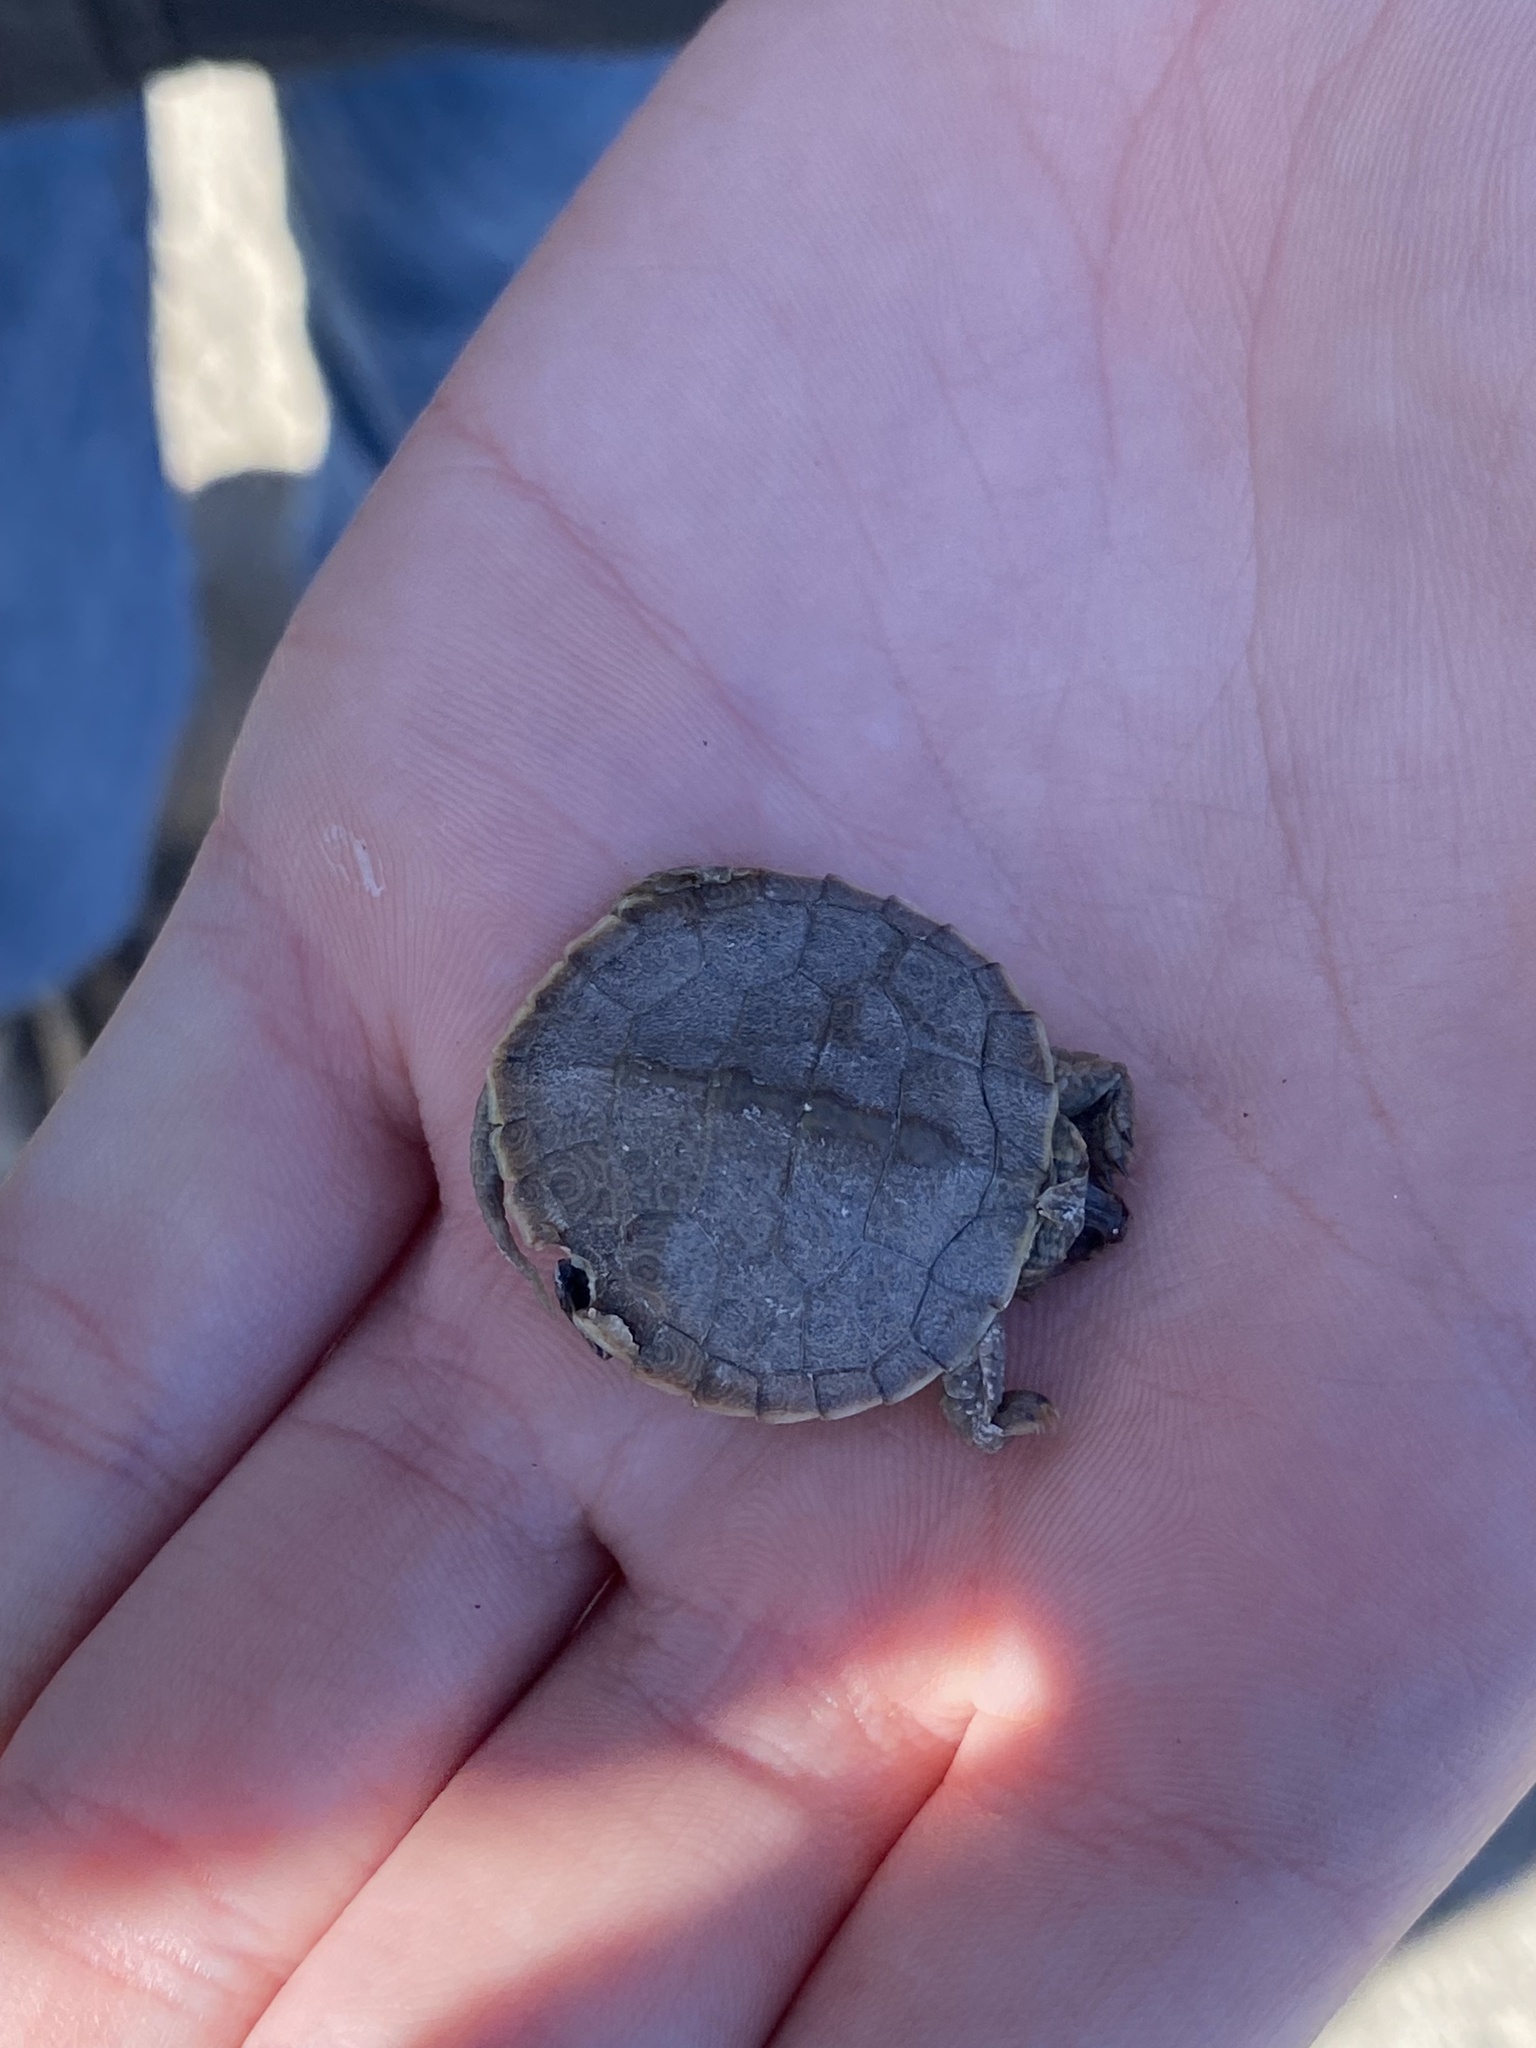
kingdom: Animalia
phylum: Chordata
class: Testudines
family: Emydidae
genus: Graptemys
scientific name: Graptemys geographica
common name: Common map turtle
